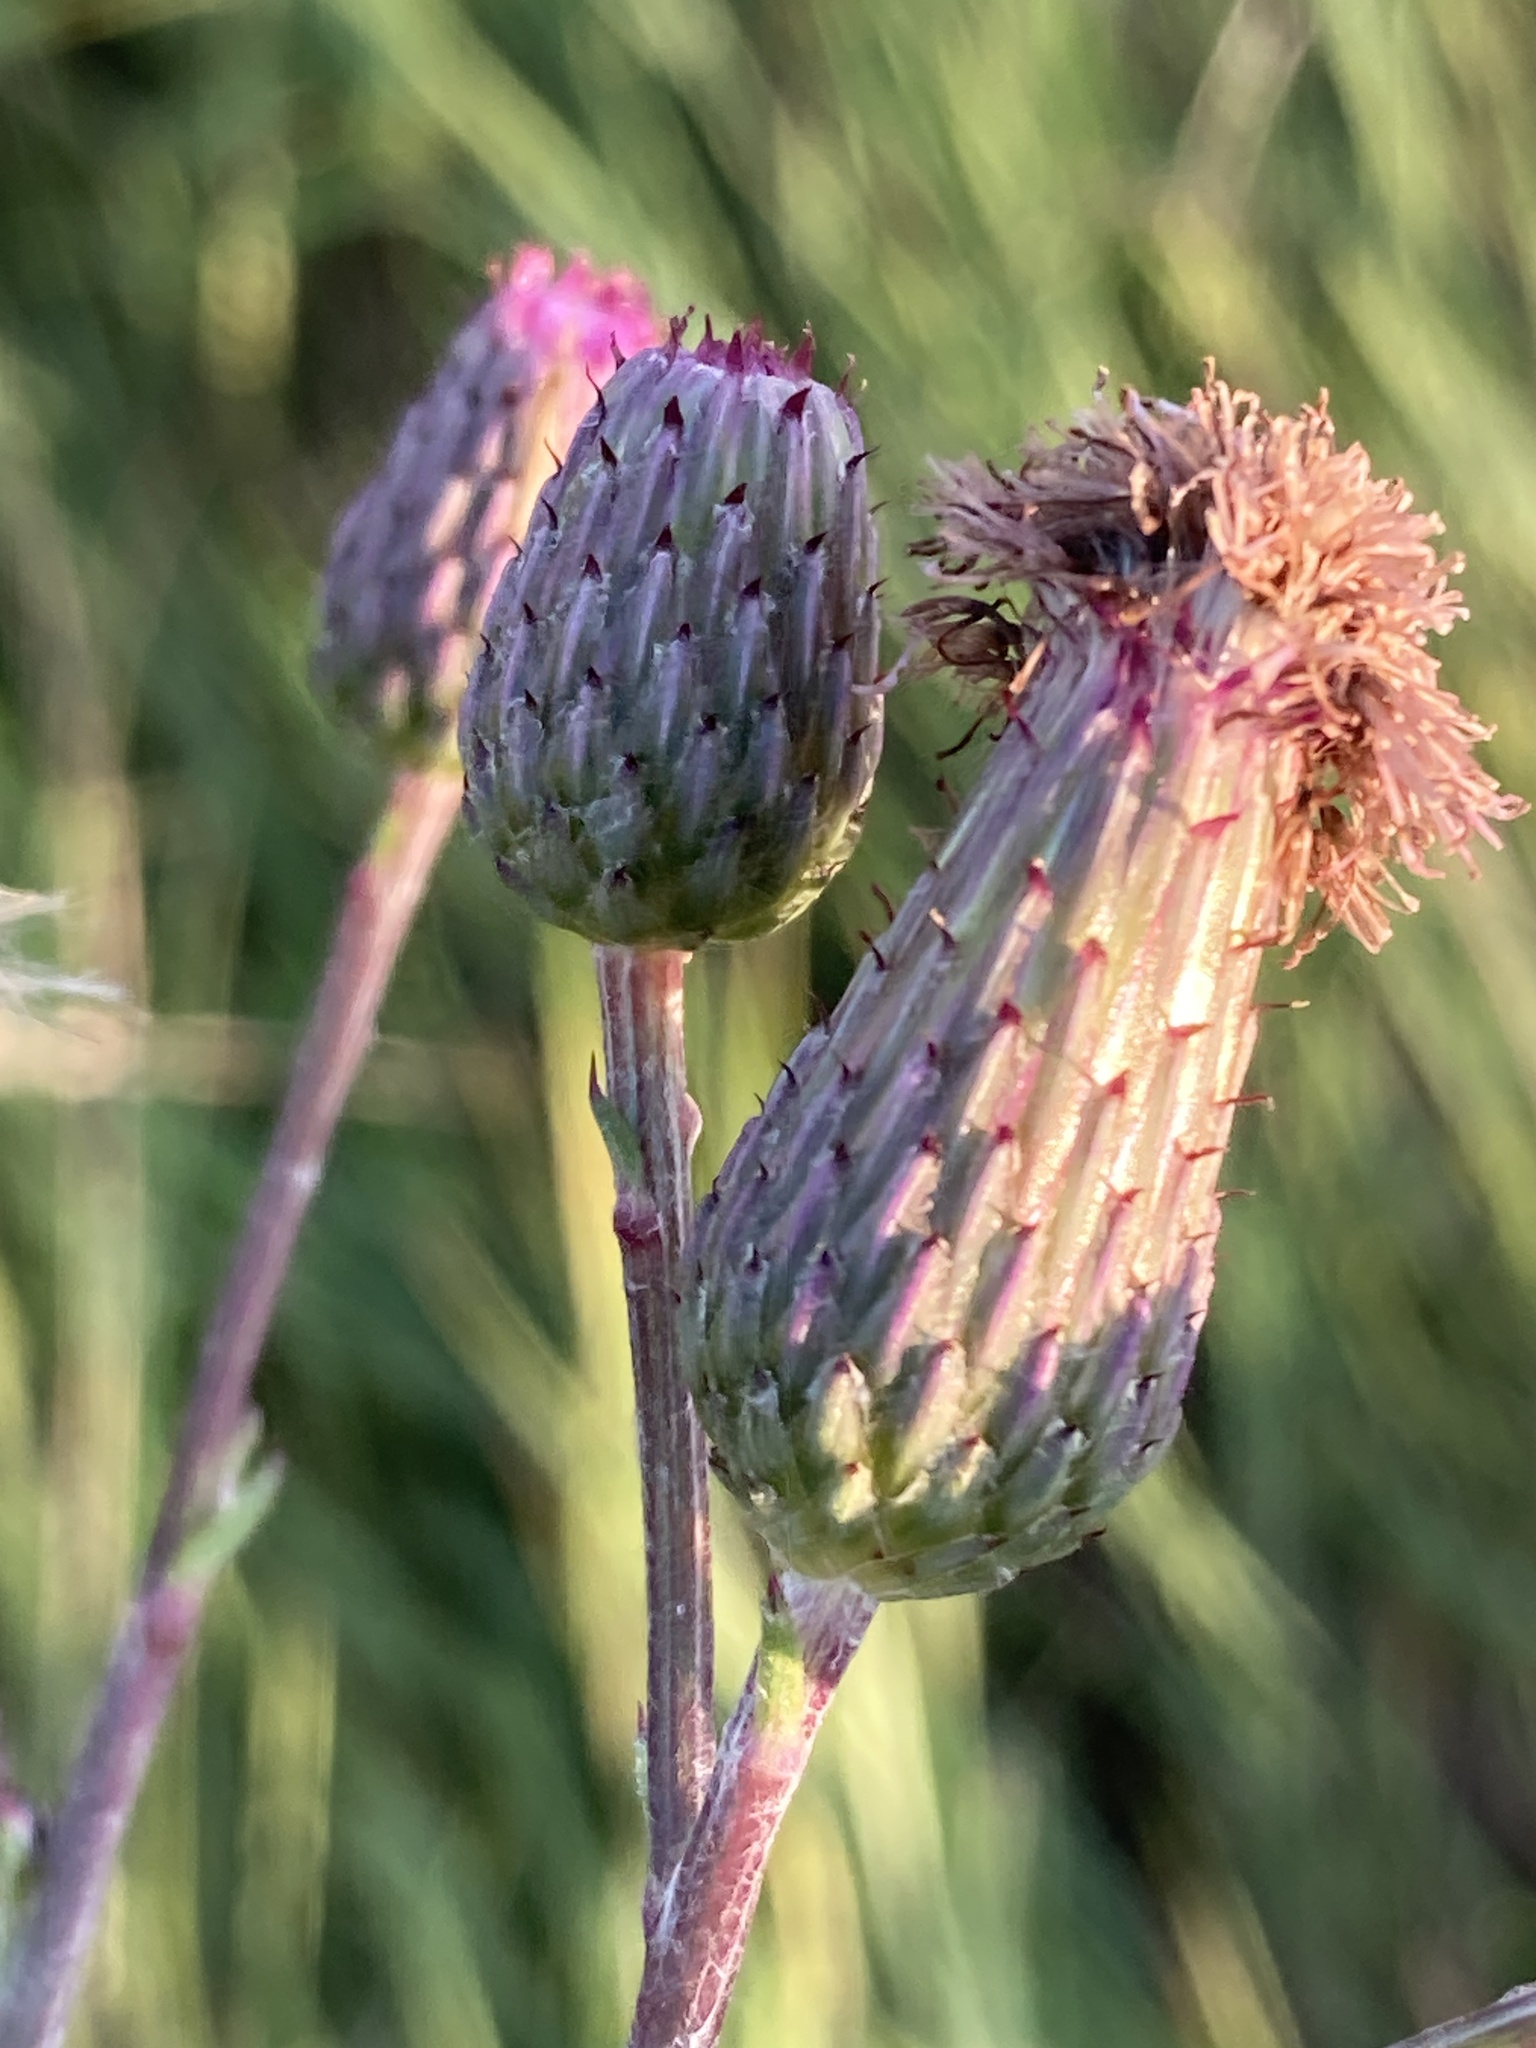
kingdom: Plantae
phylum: Tracheophyta
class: Magnoliopsida
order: Asterales
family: Asteraceae
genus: Cirsium
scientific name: Cirsium arvense
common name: Creeping thistle
